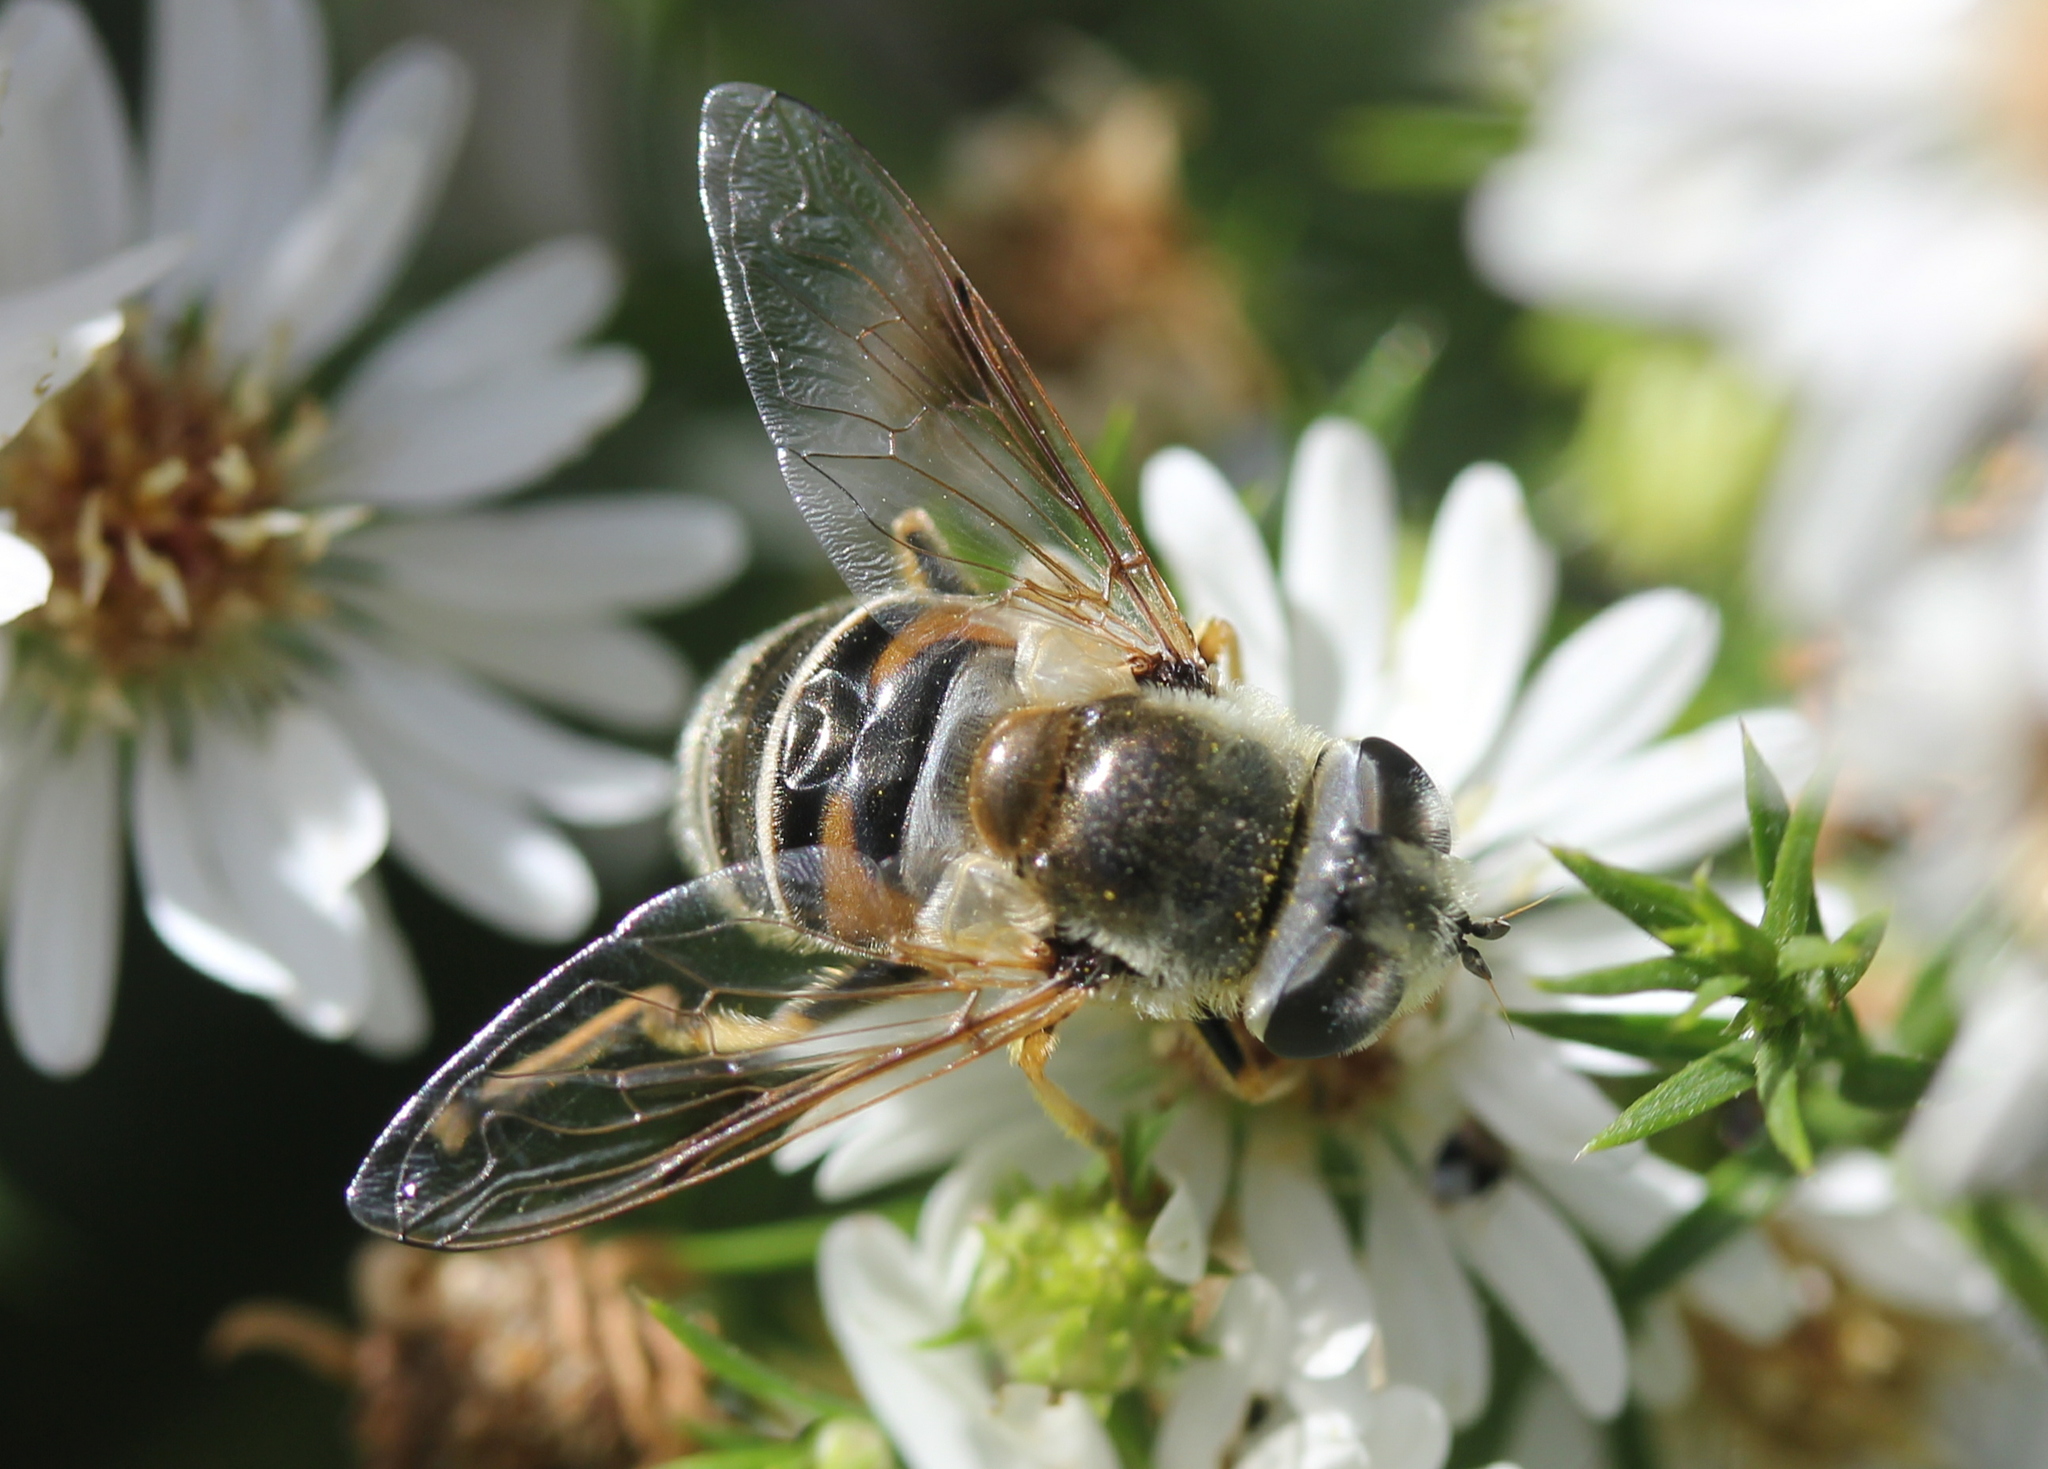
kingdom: Animalia
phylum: Arthropoda
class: Insecta
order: Diptera
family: Syrphidae
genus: Eristalis
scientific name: Eristalis stipator
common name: Yellow-shouldered drone fly
